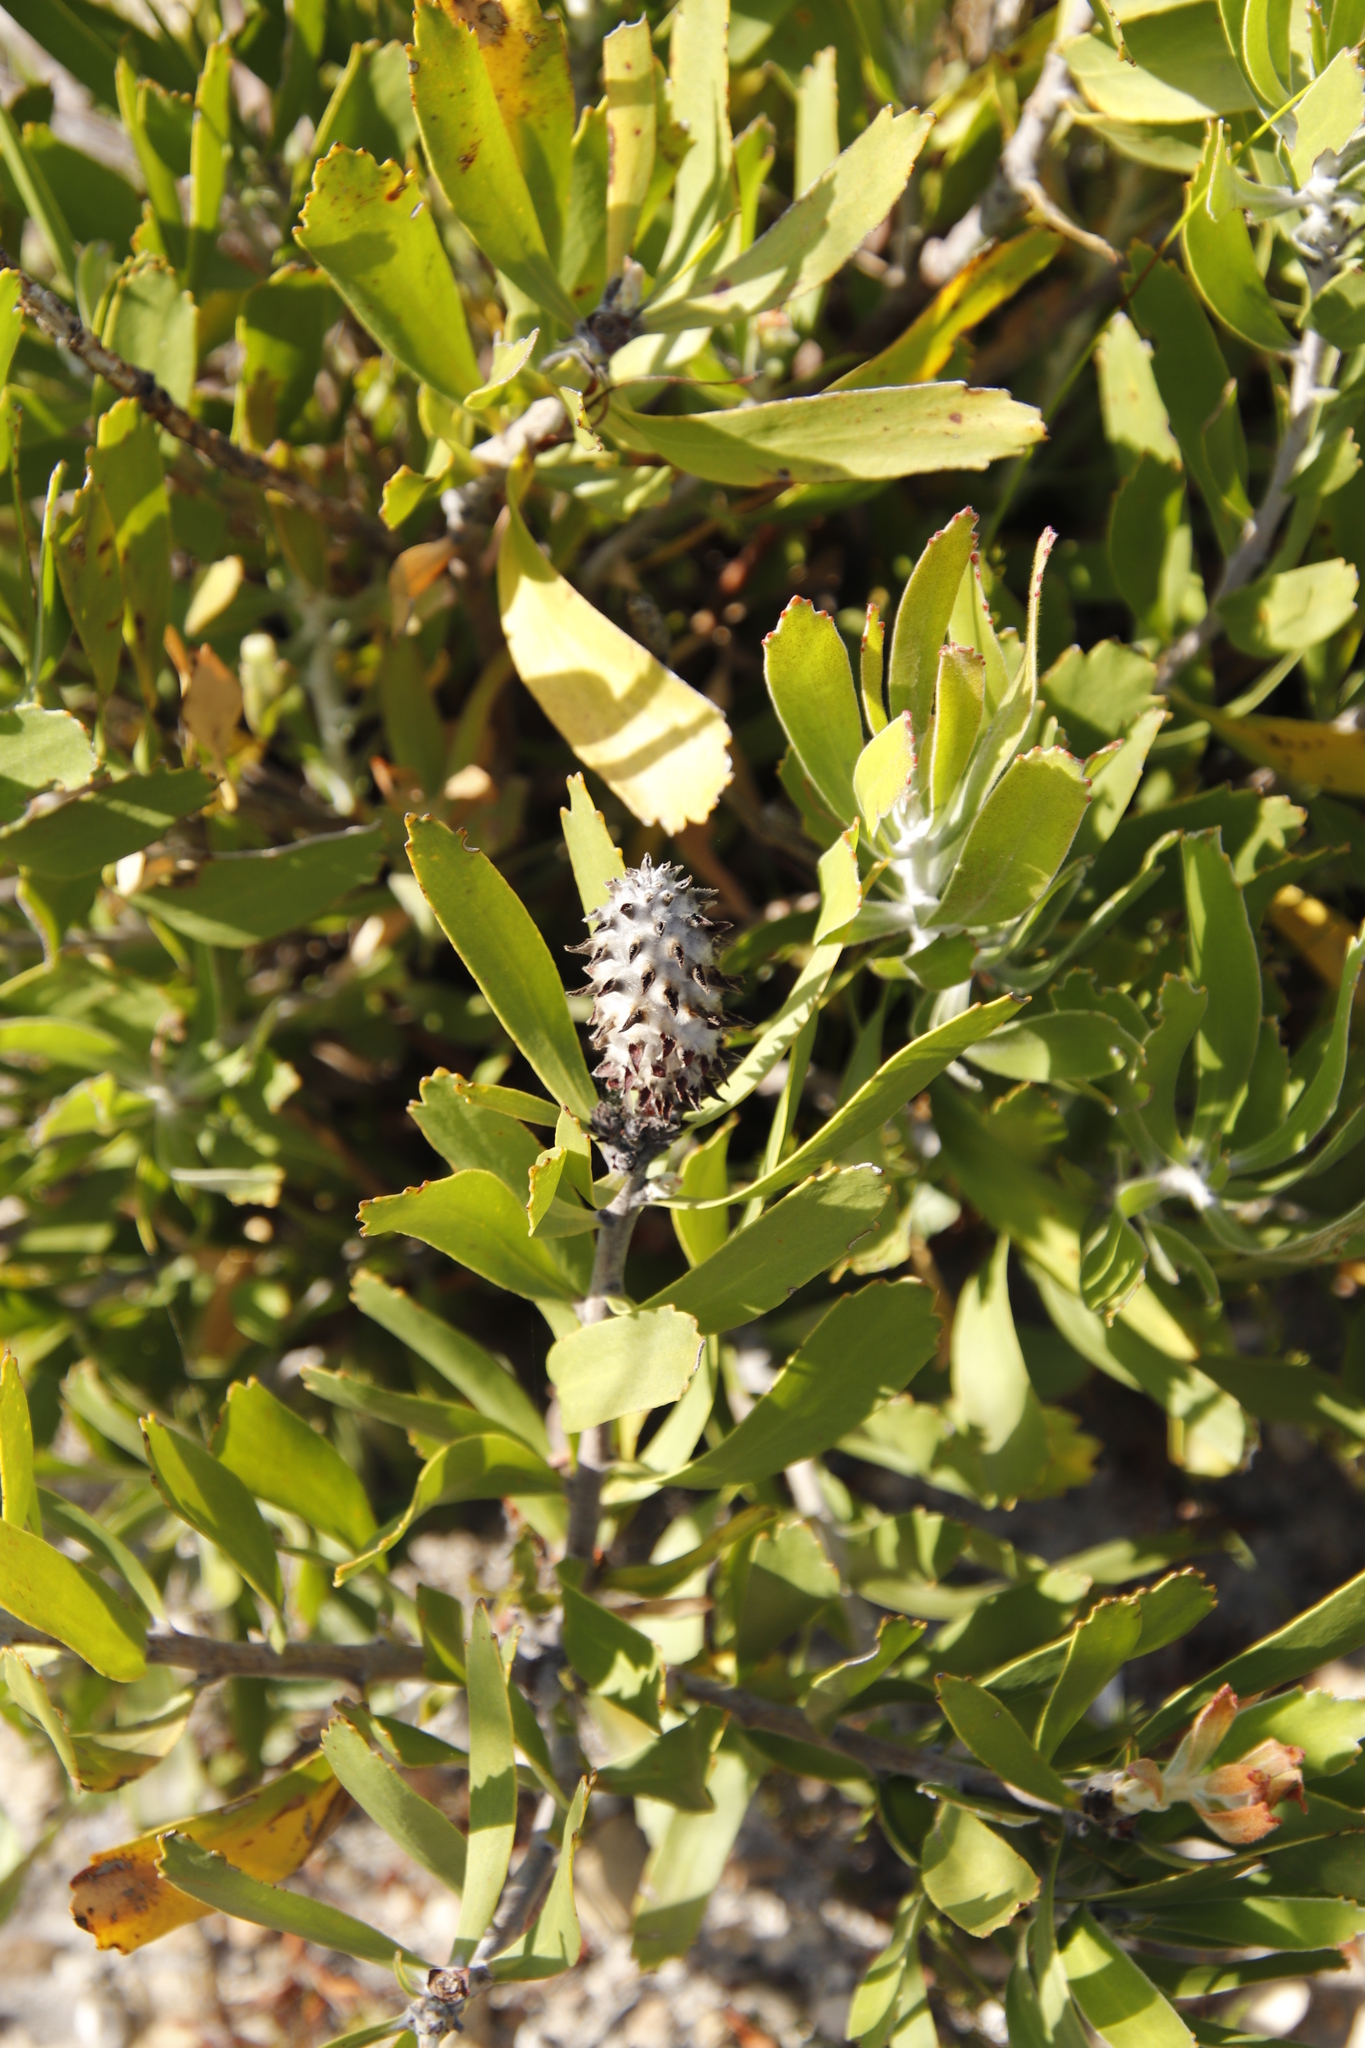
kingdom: Plantae
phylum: Tracheophyta
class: Magnoliopsida
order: Proteales
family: Proteaceae
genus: Leucospermum
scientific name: Leucospermum cuneiforme
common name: Common pincushion
